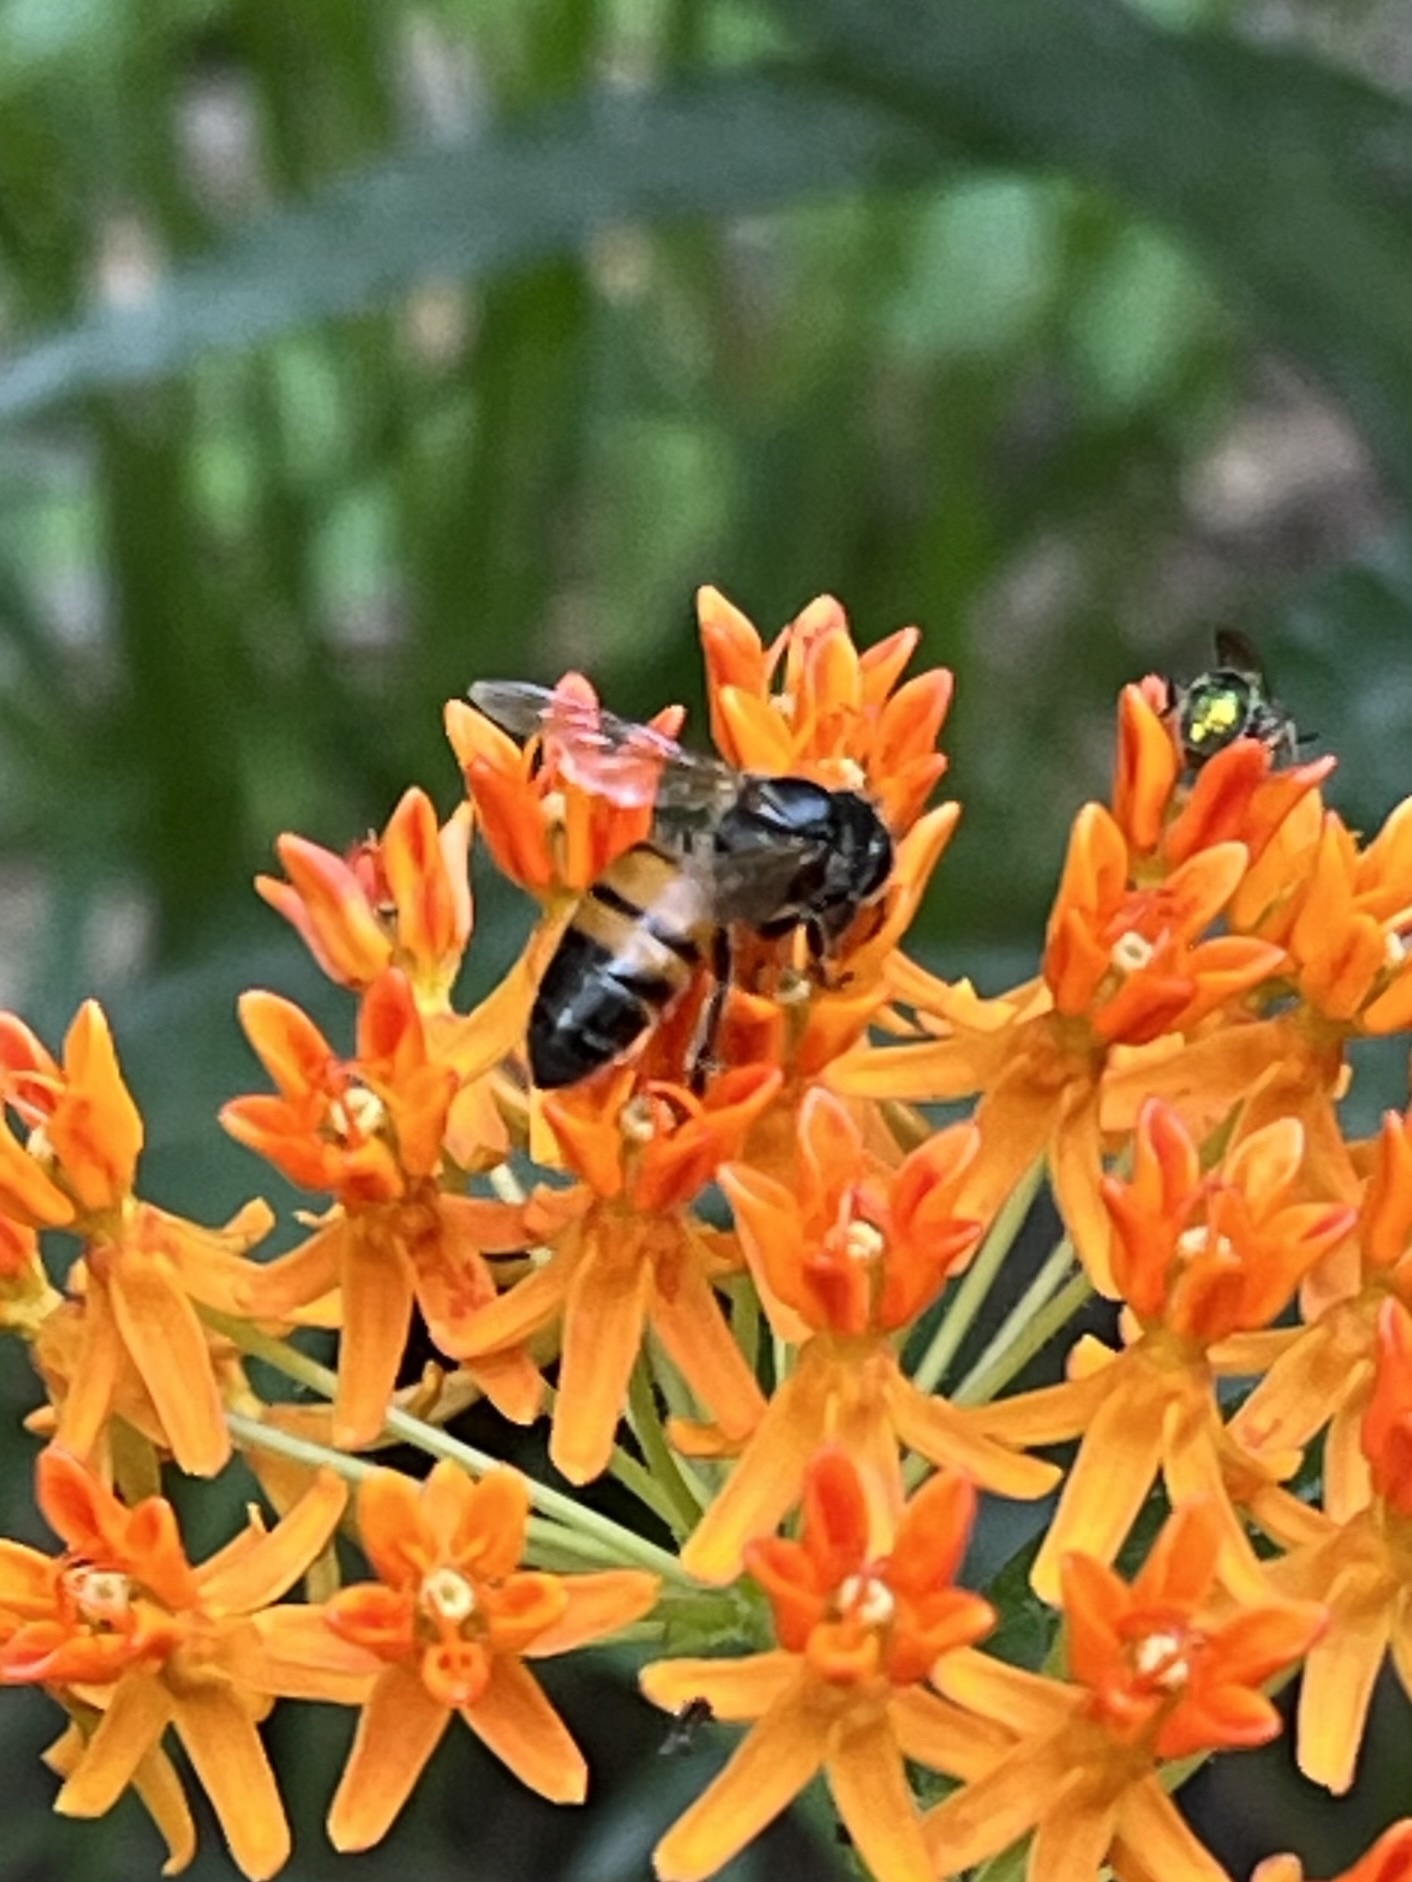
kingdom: Animalia
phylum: Arthropoda
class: Insecta
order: Hymenoptera
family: Apidae
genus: Apis
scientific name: Apis mellifera
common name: Honey bee
